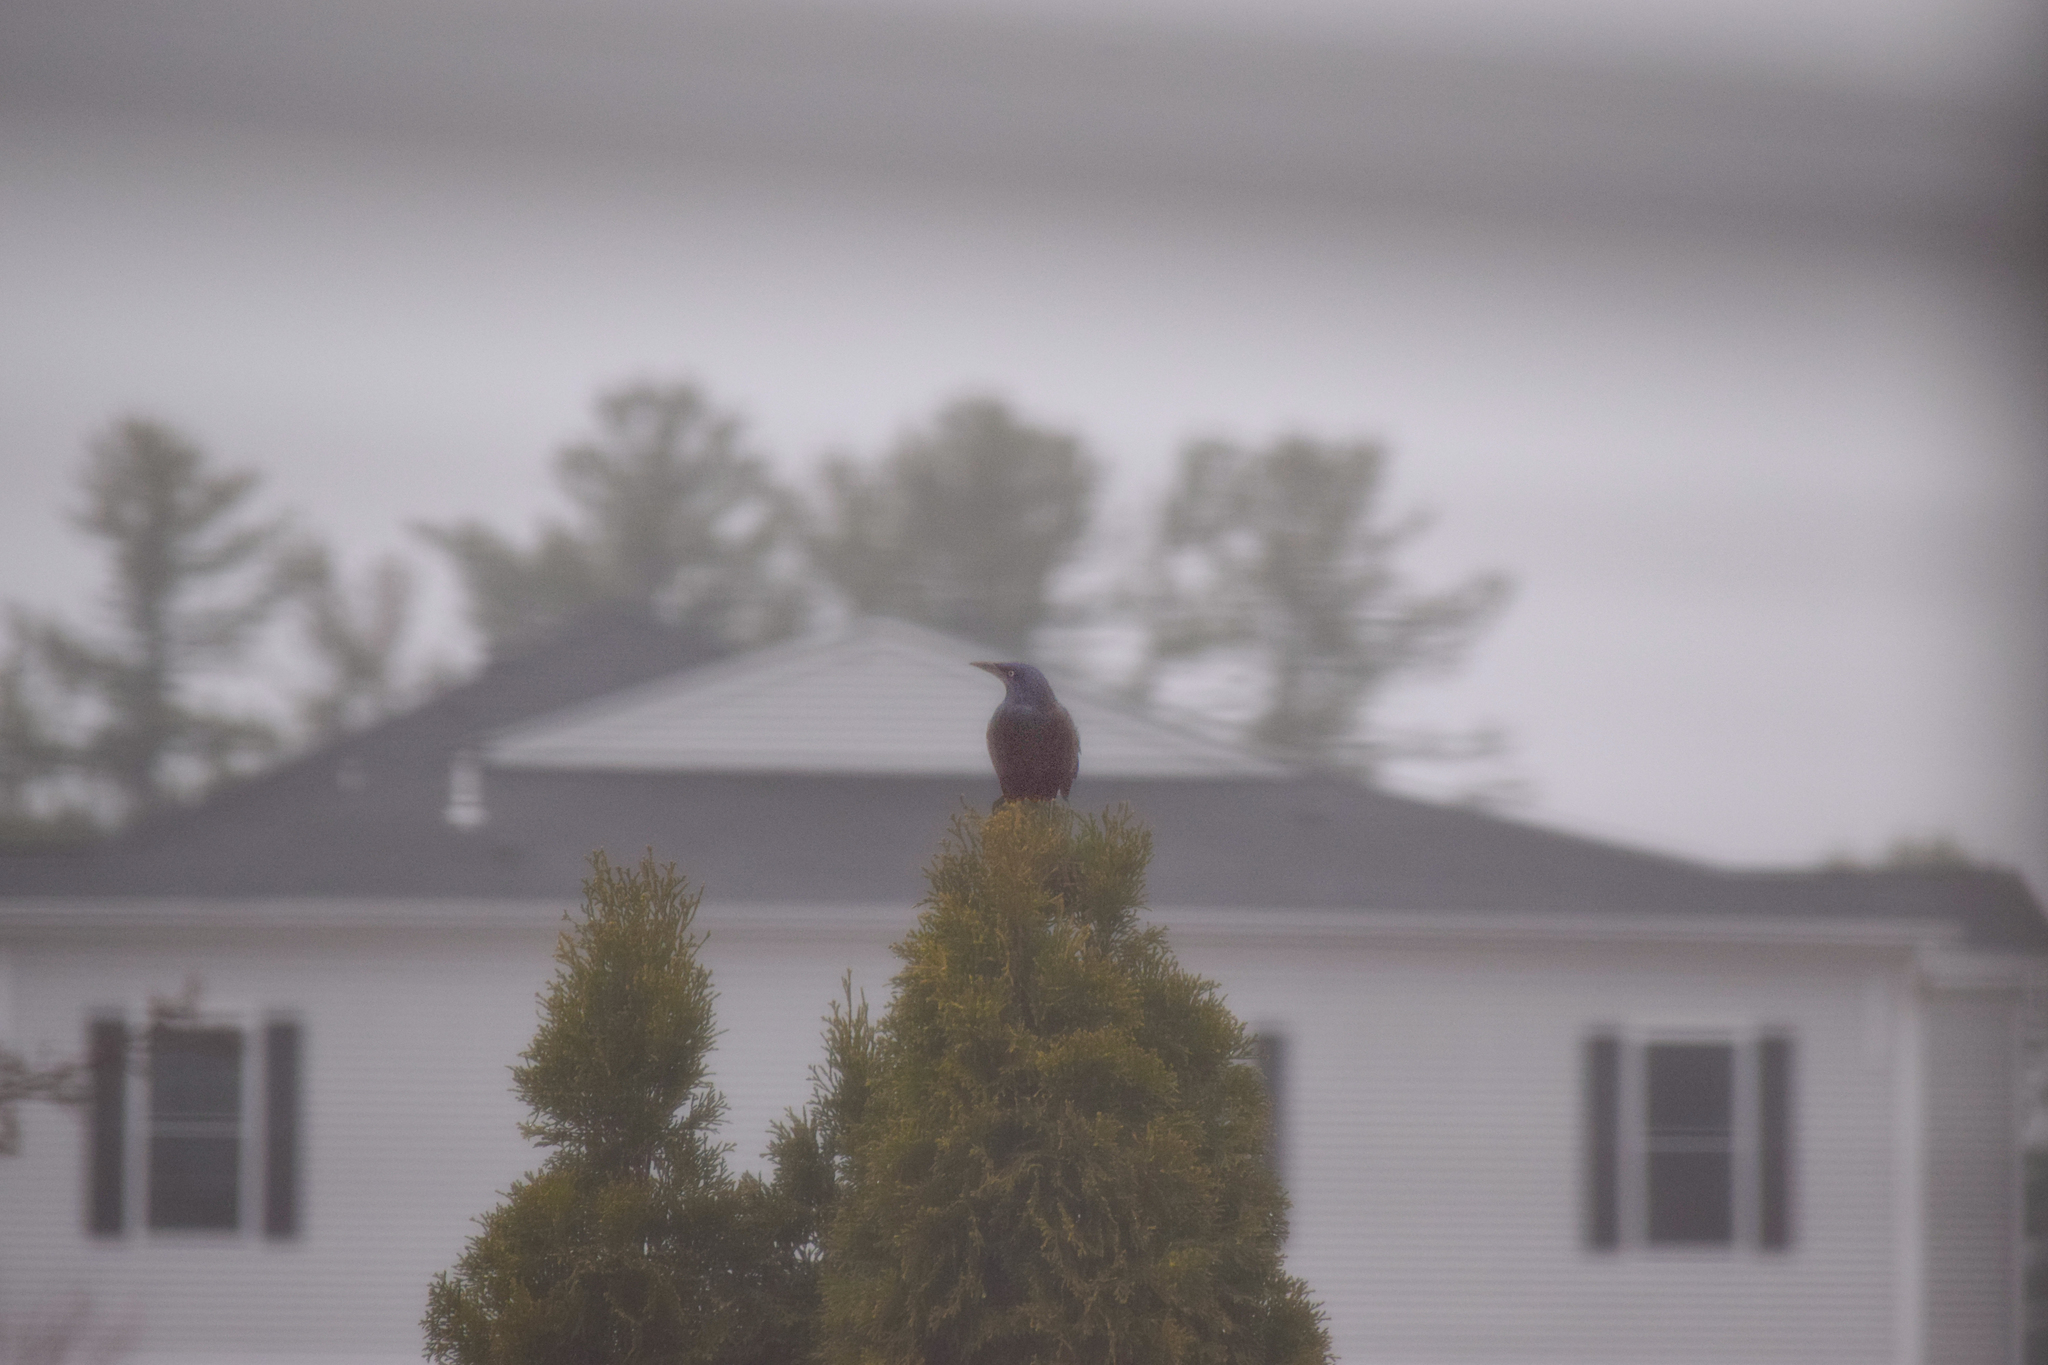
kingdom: Animalia
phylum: Chordata
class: Aves
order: Passeriformes
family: Icteridae
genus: Quiscalus
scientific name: Quiscalus quiscula
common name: Common grackle
